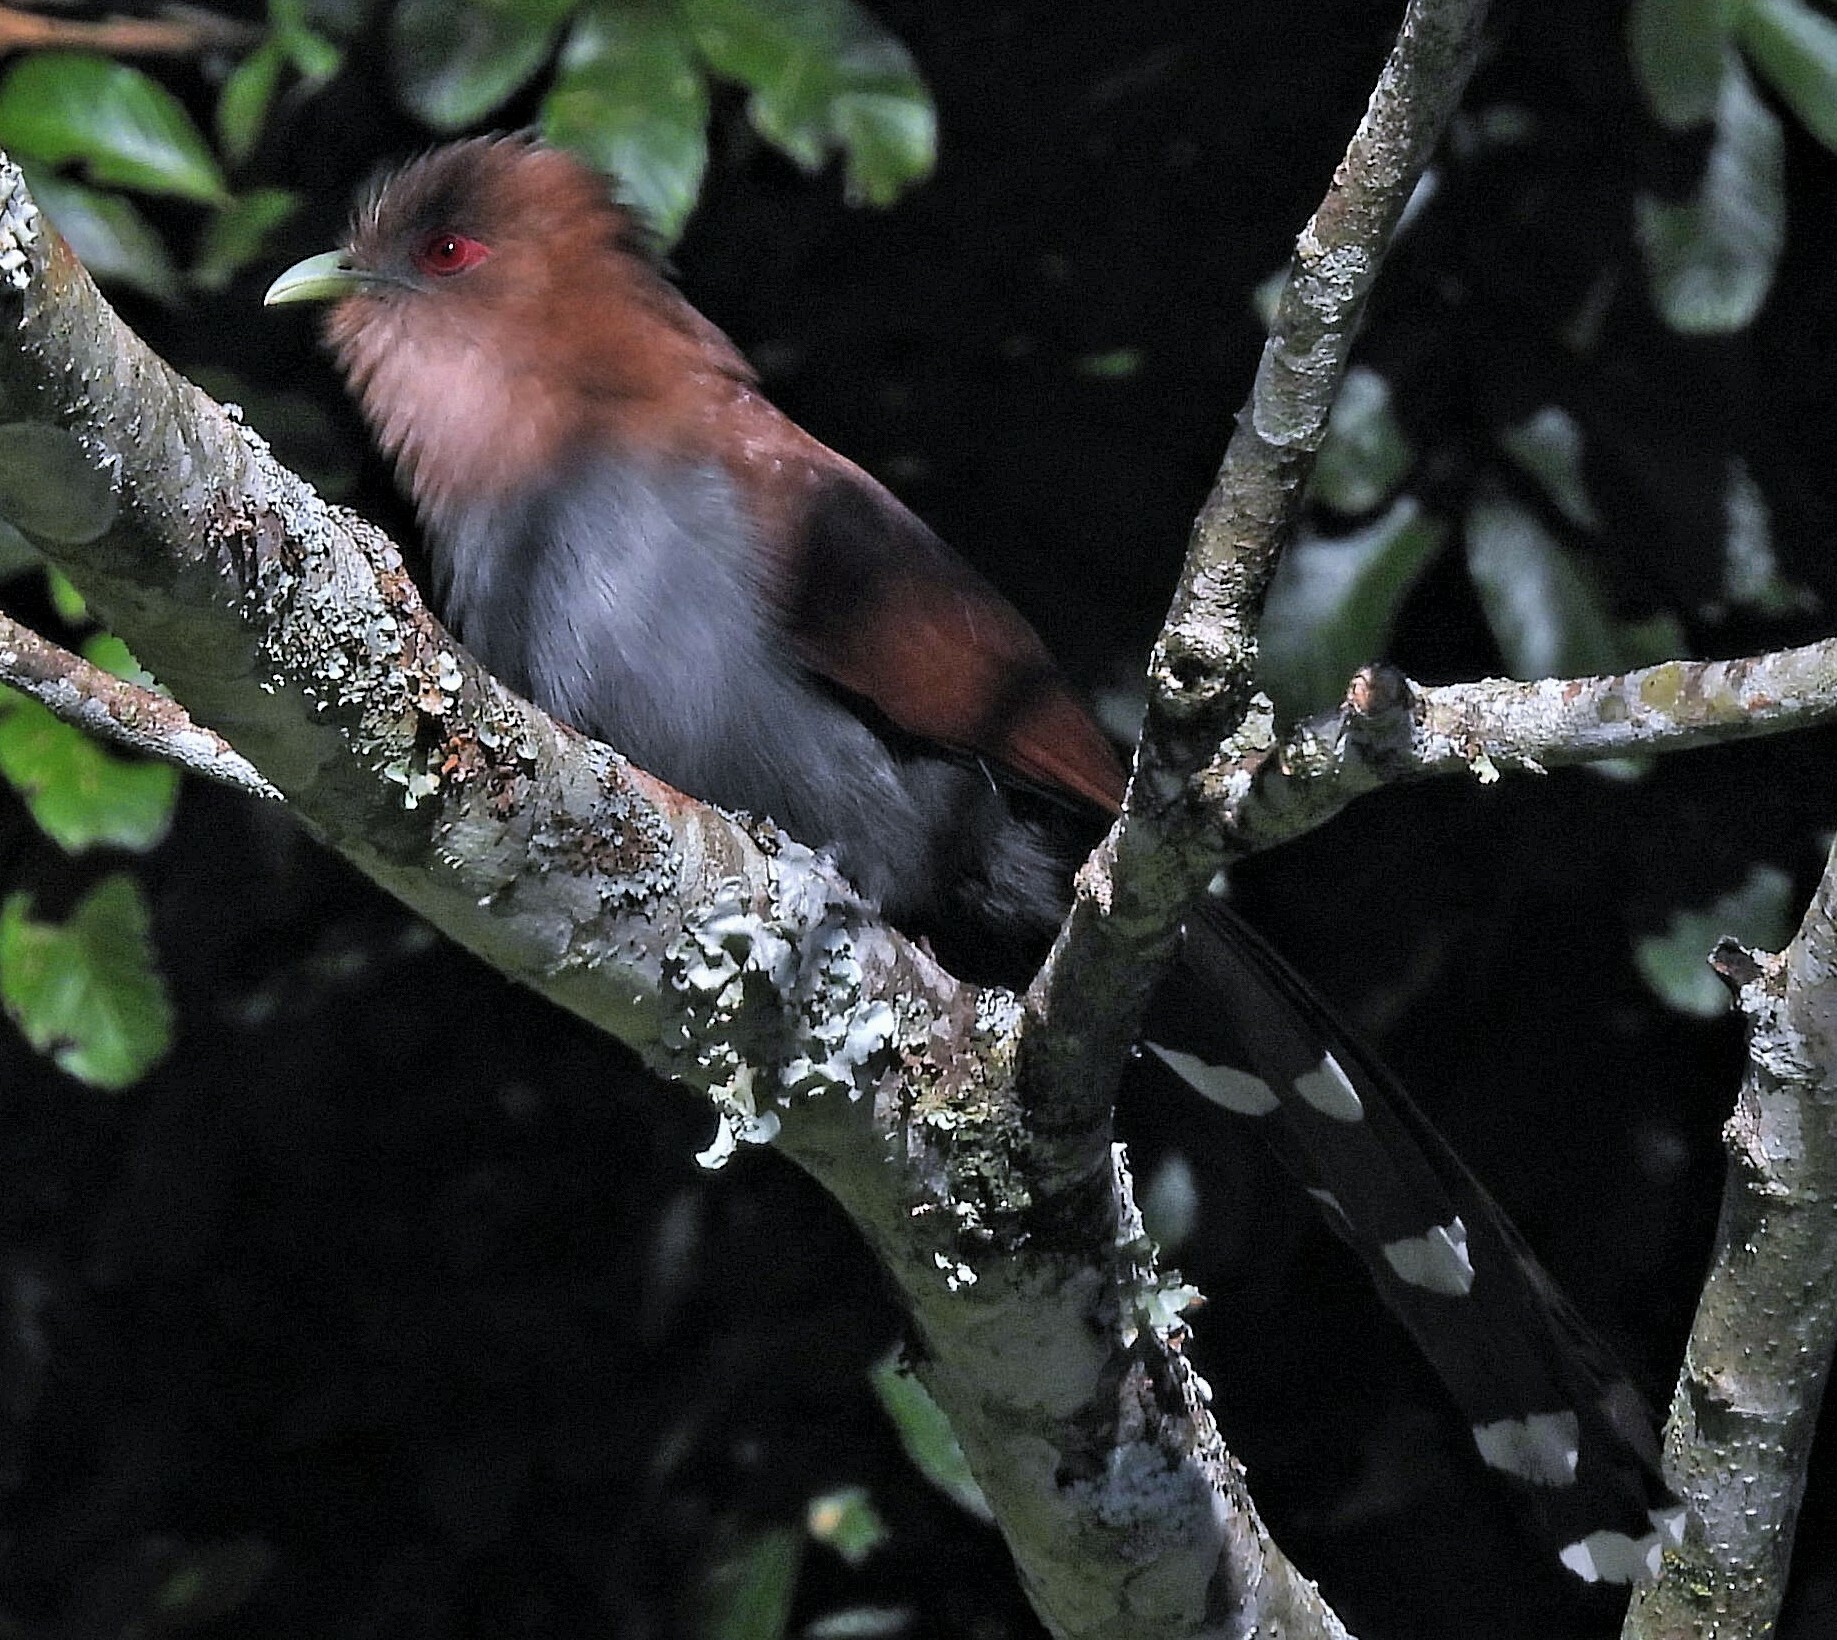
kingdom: Animalia
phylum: Chordata
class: Aves
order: Cuculiformes
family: Cuculidae
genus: Piaya
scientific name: Piaya cayana
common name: Squirrel cuckoo
